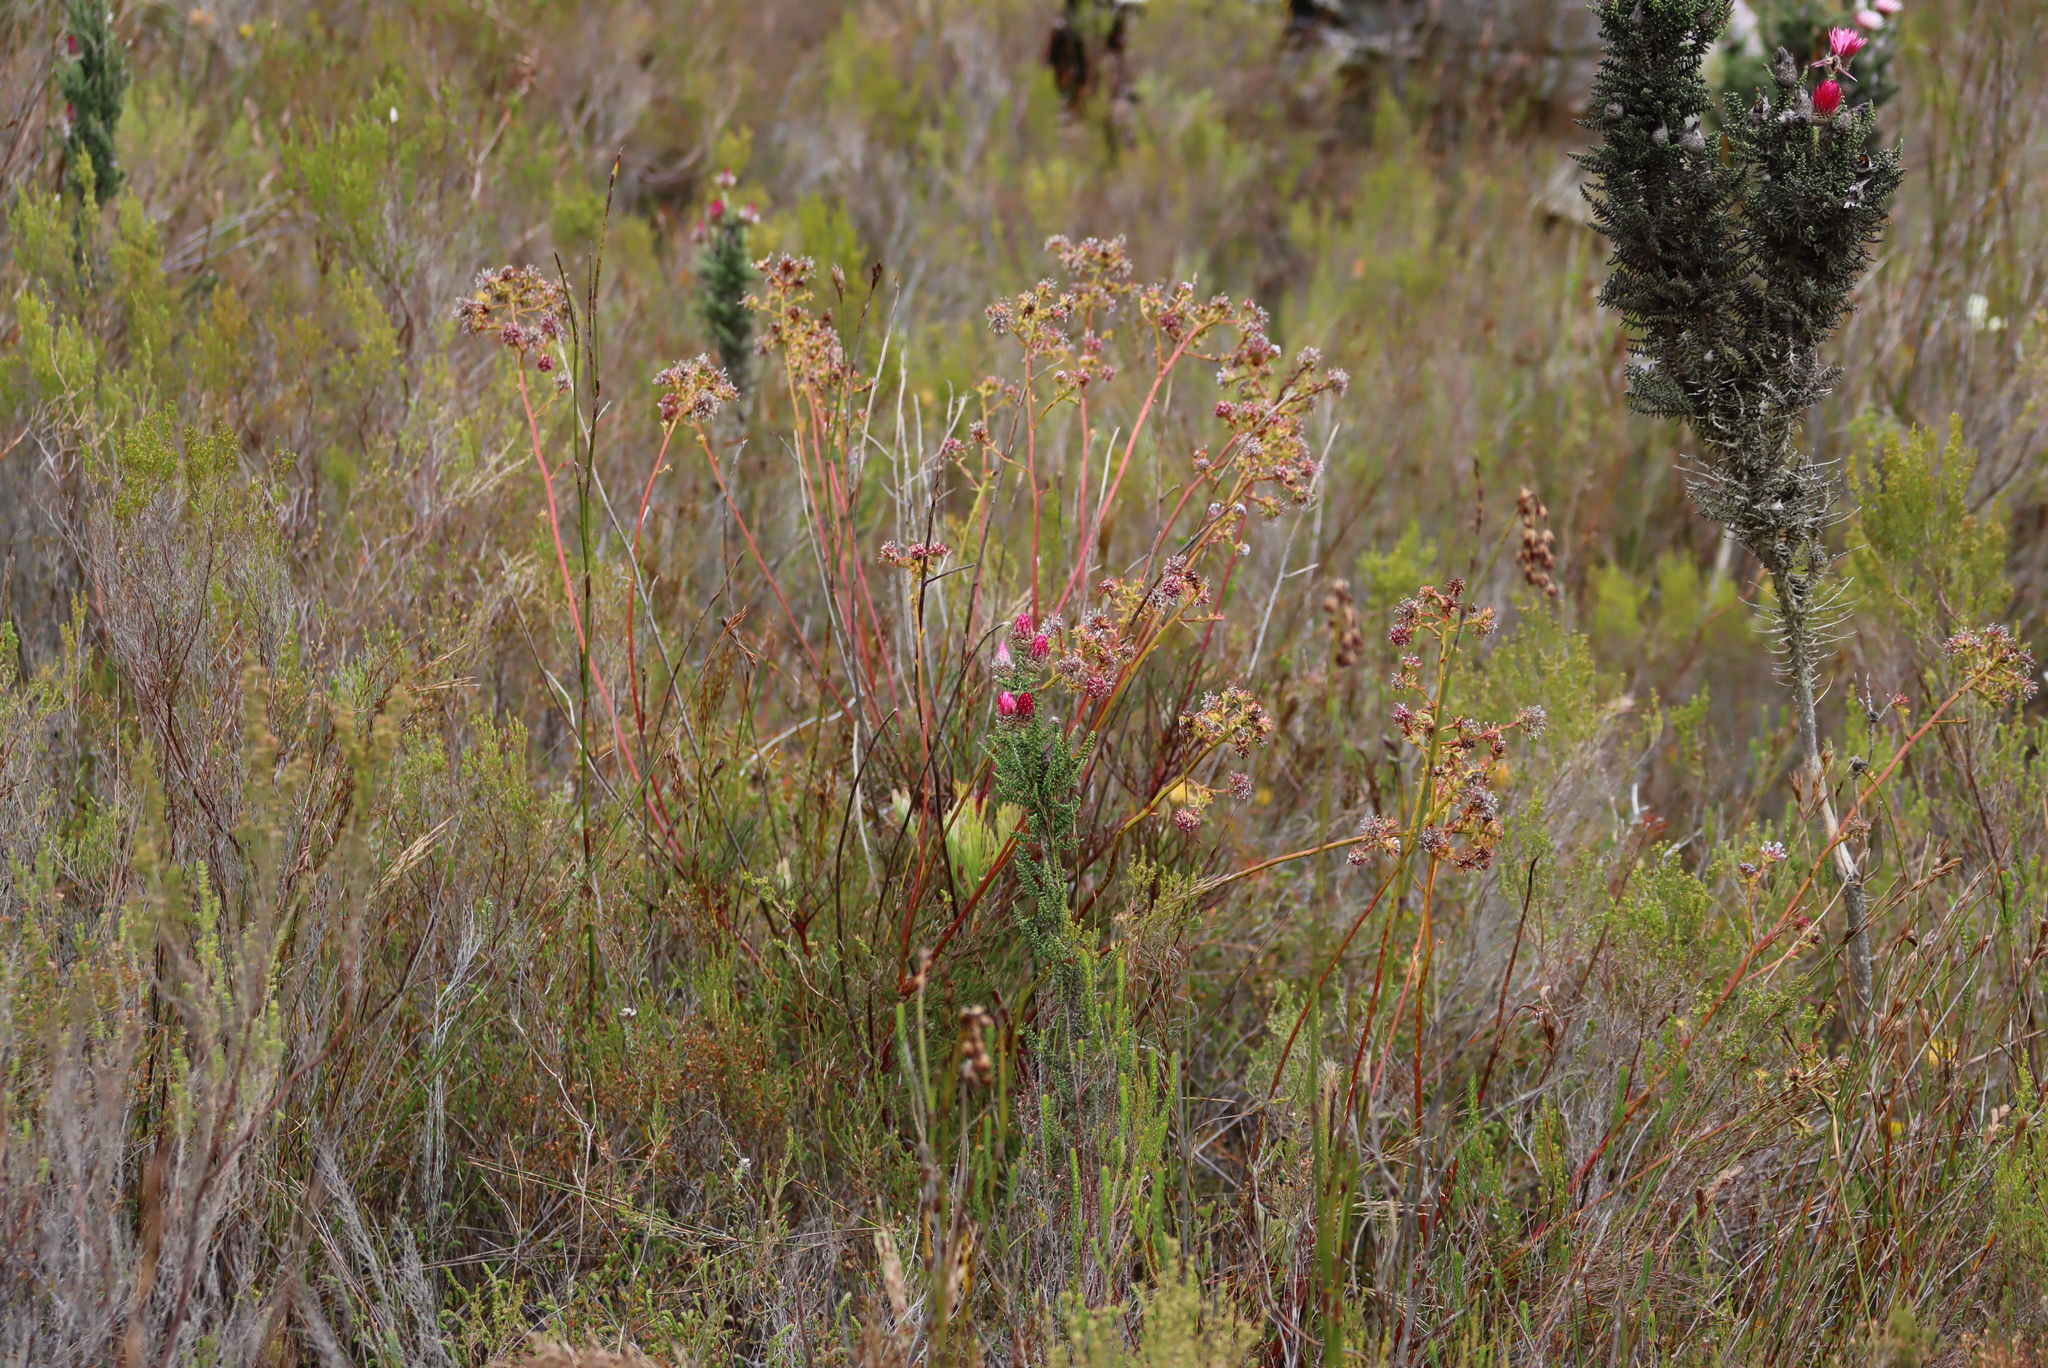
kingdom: Plantae
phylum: Tracheophyta
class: Magnoliopsida
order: Proteales
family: Proteaceae
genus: Serruria
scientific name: Serruria elongata
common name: Long-stalk spiderhead
